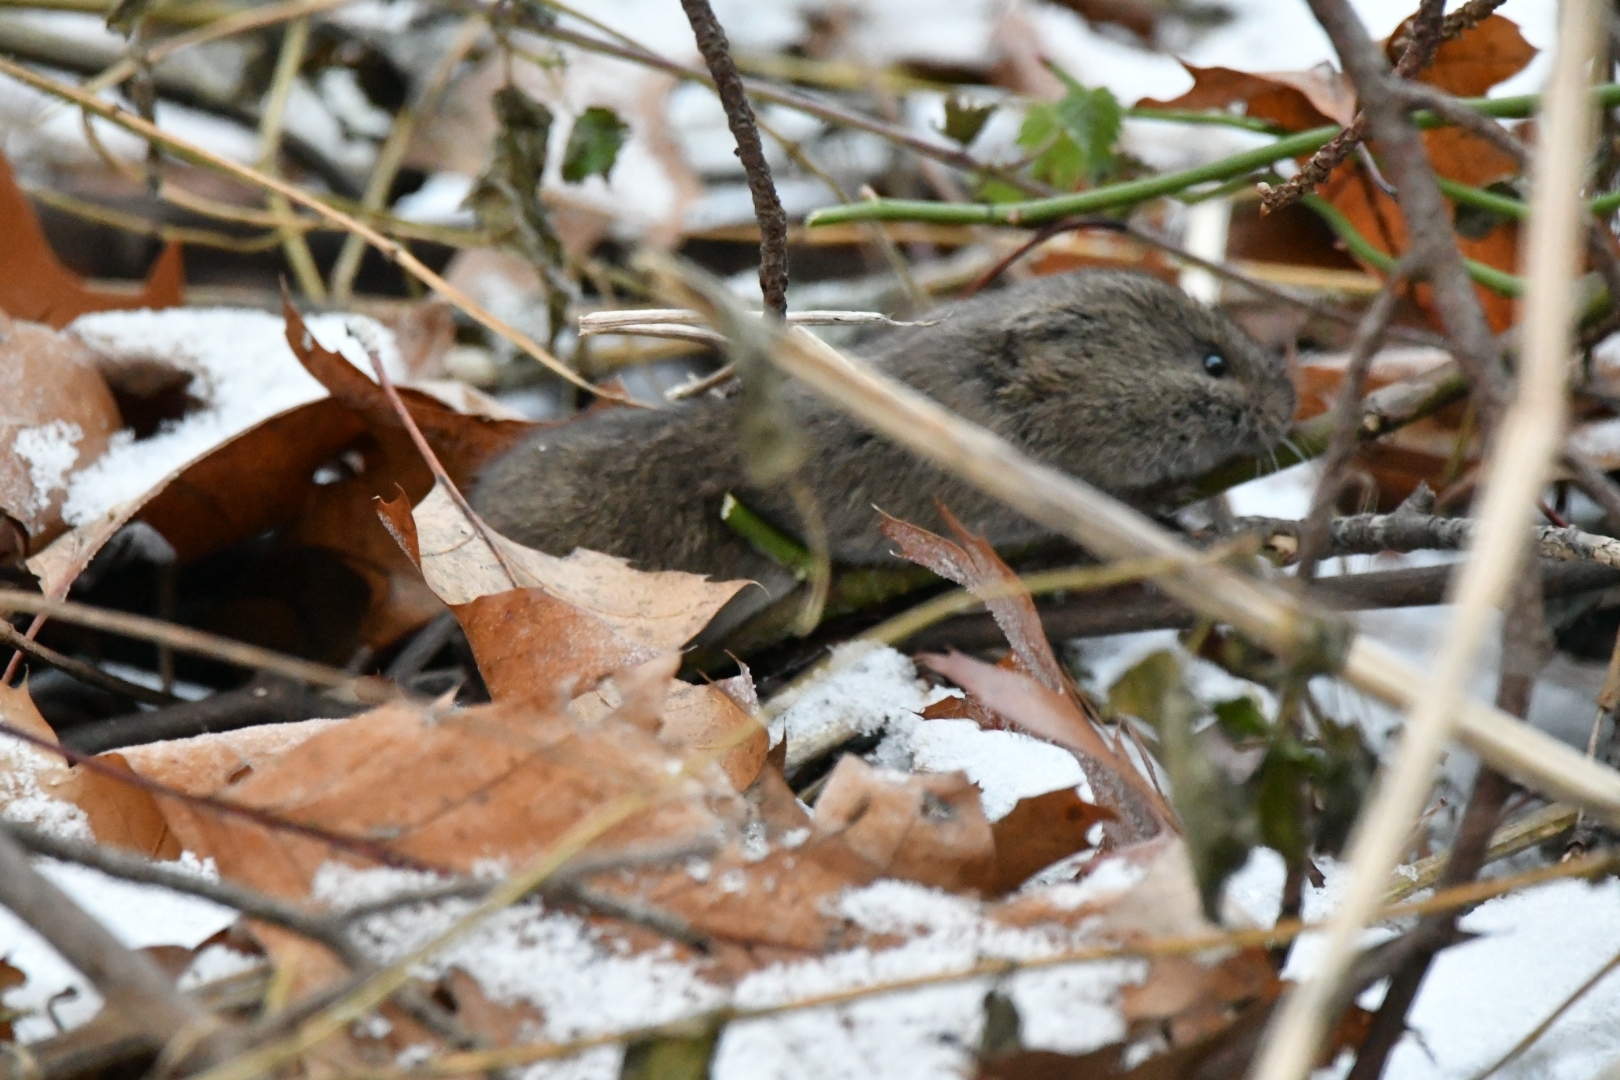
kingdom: Animalia
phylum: Chordata
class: Mammalia
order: Rodentia
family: Cricetidae
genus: Microtus
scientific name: Microtus pennsylvanicus
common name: Meadow vole
